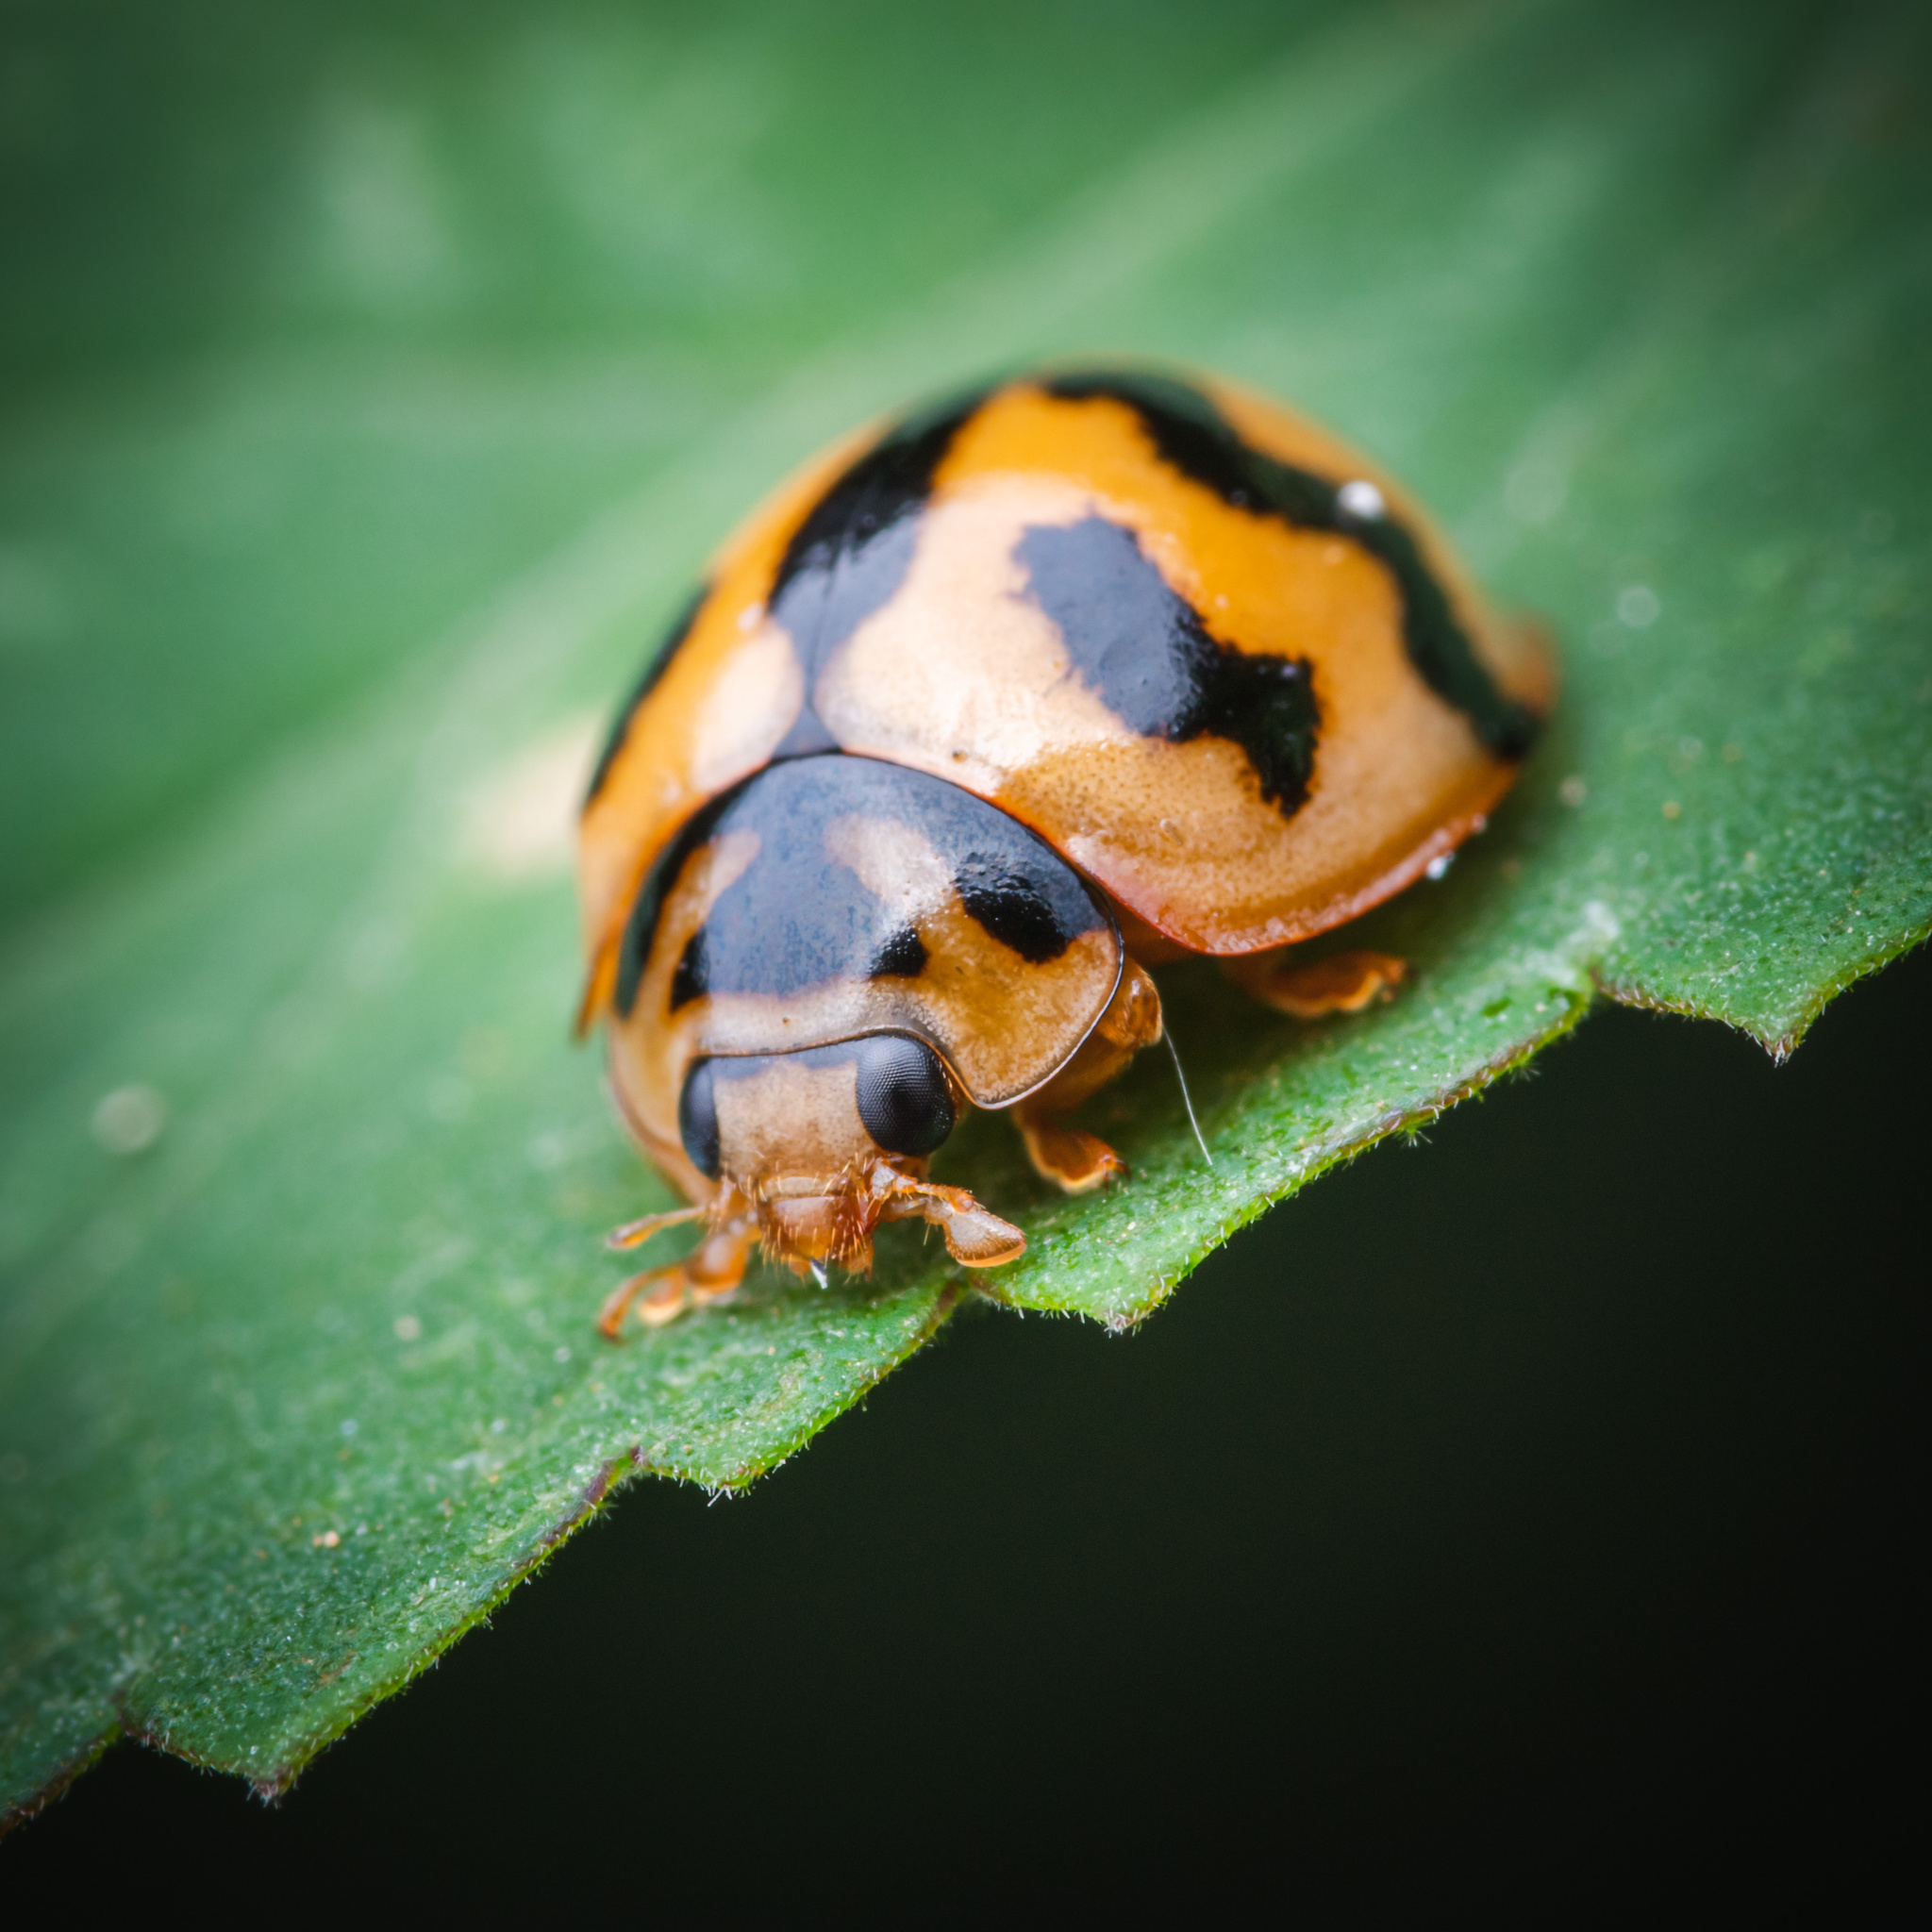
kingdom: Animalia
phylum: Arthropoda
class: Insecta
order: Coleoptera
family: Coccinellidae
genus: Cheilomenes
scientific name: Cheilomenes sexmaculata
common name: Ladybird beetle
